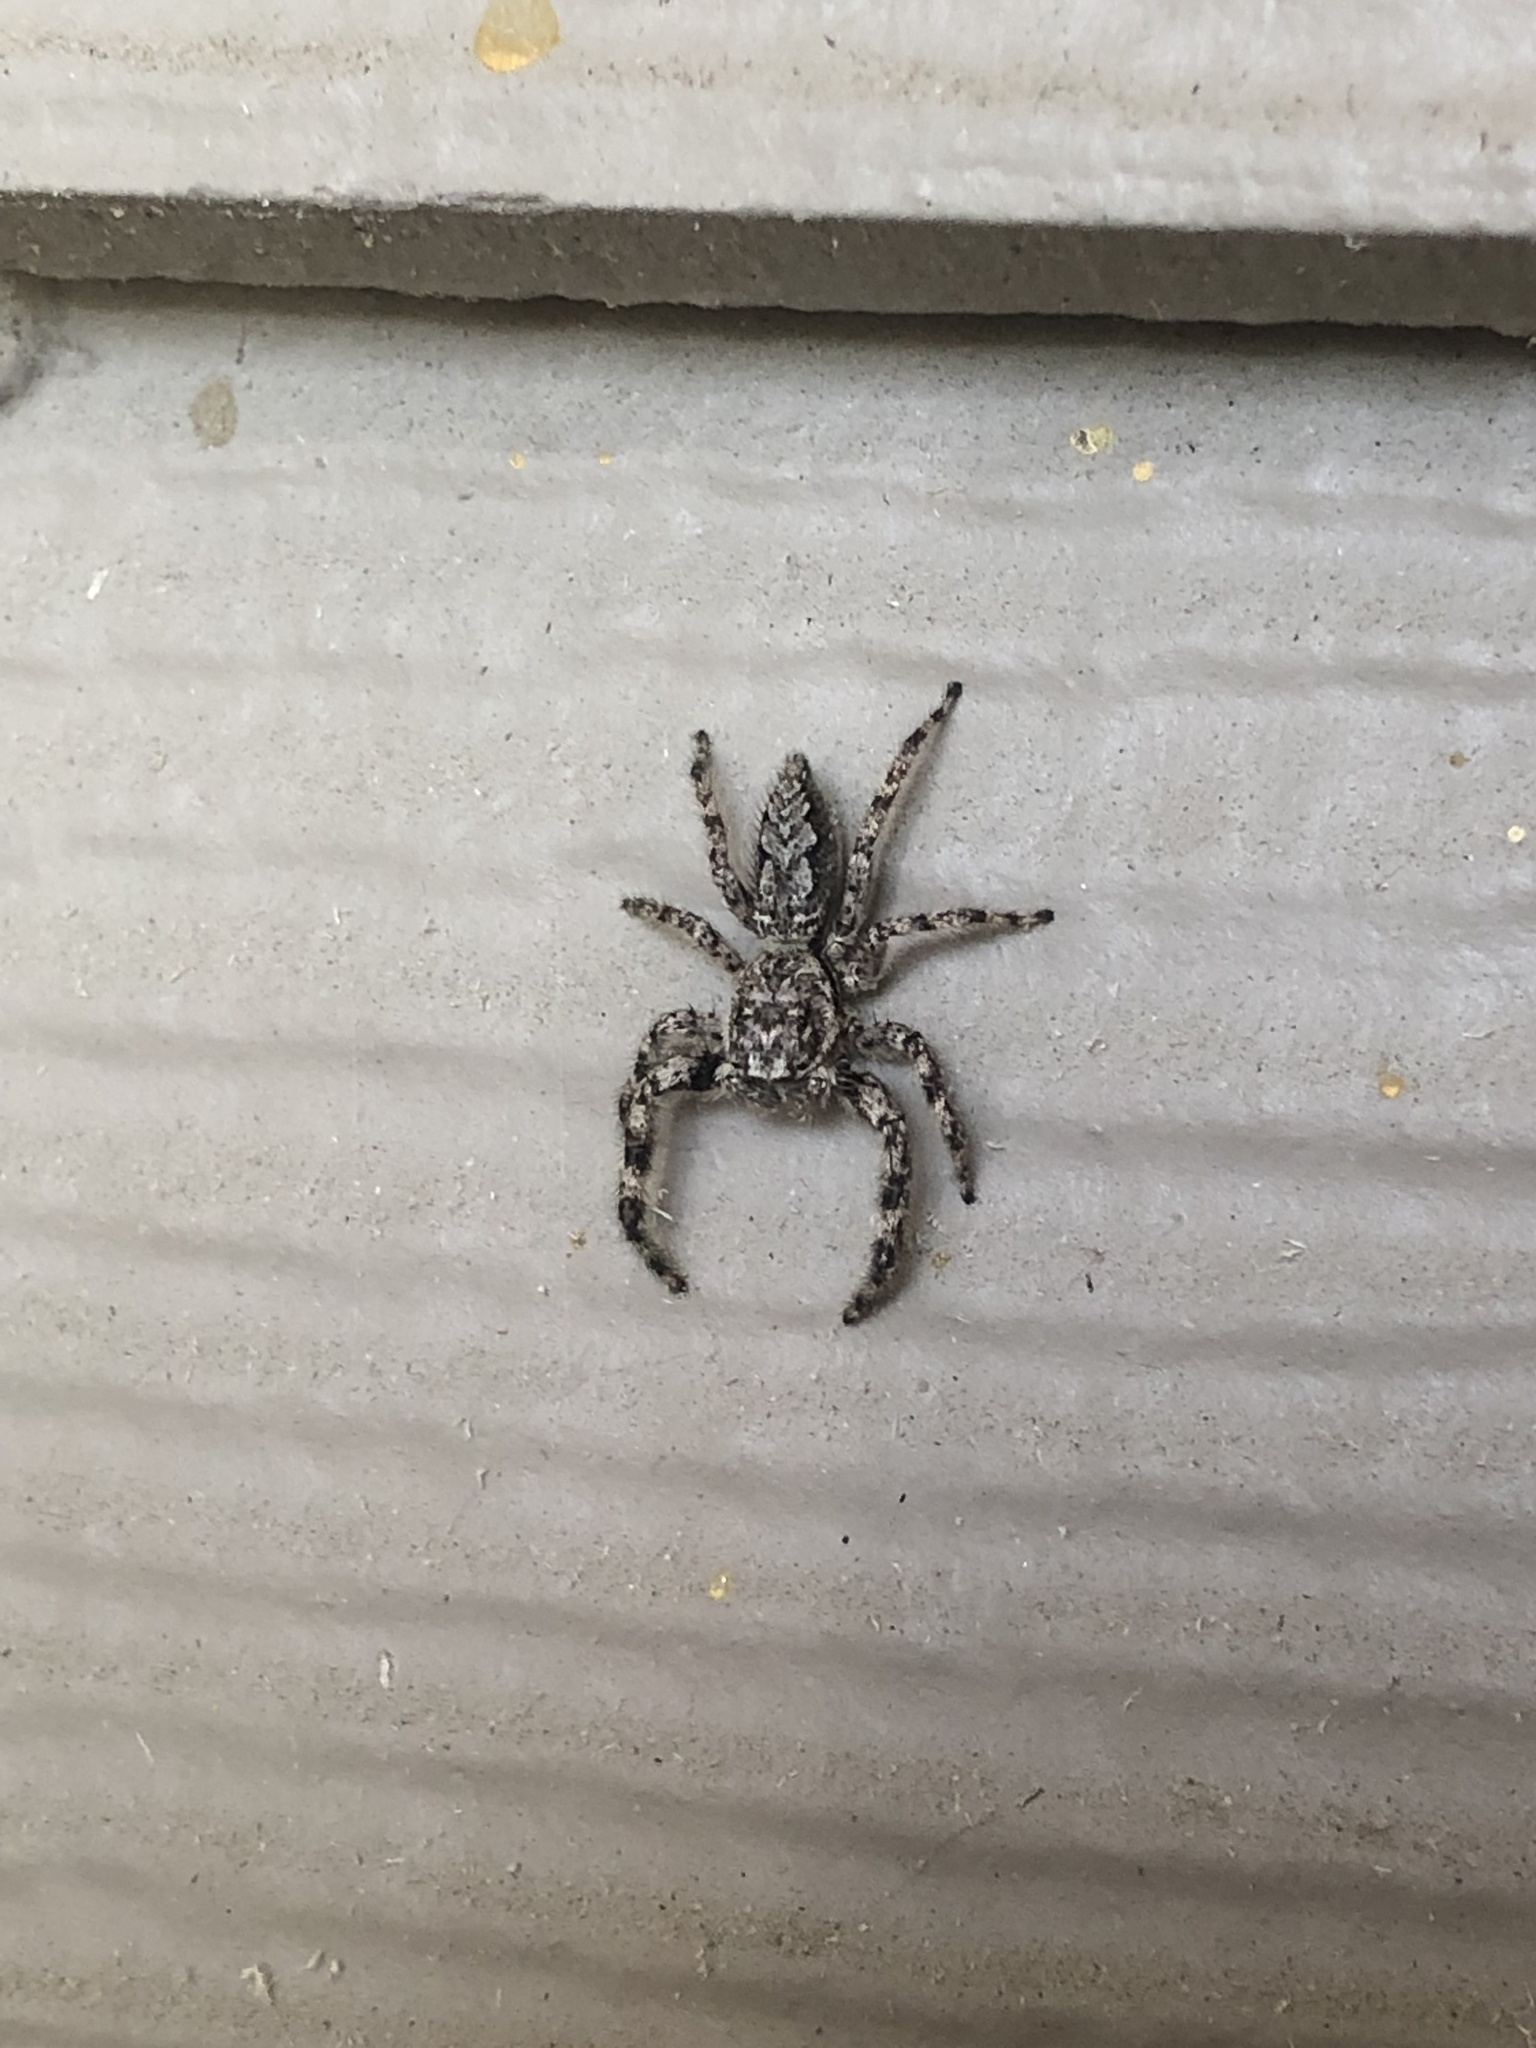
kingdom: Animalia
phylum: Arthropoda
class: Arachnida
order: Araneae
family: Salticidae
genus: Platycryptus
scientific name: Platycryptus undatus
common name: Tan jumping spider
